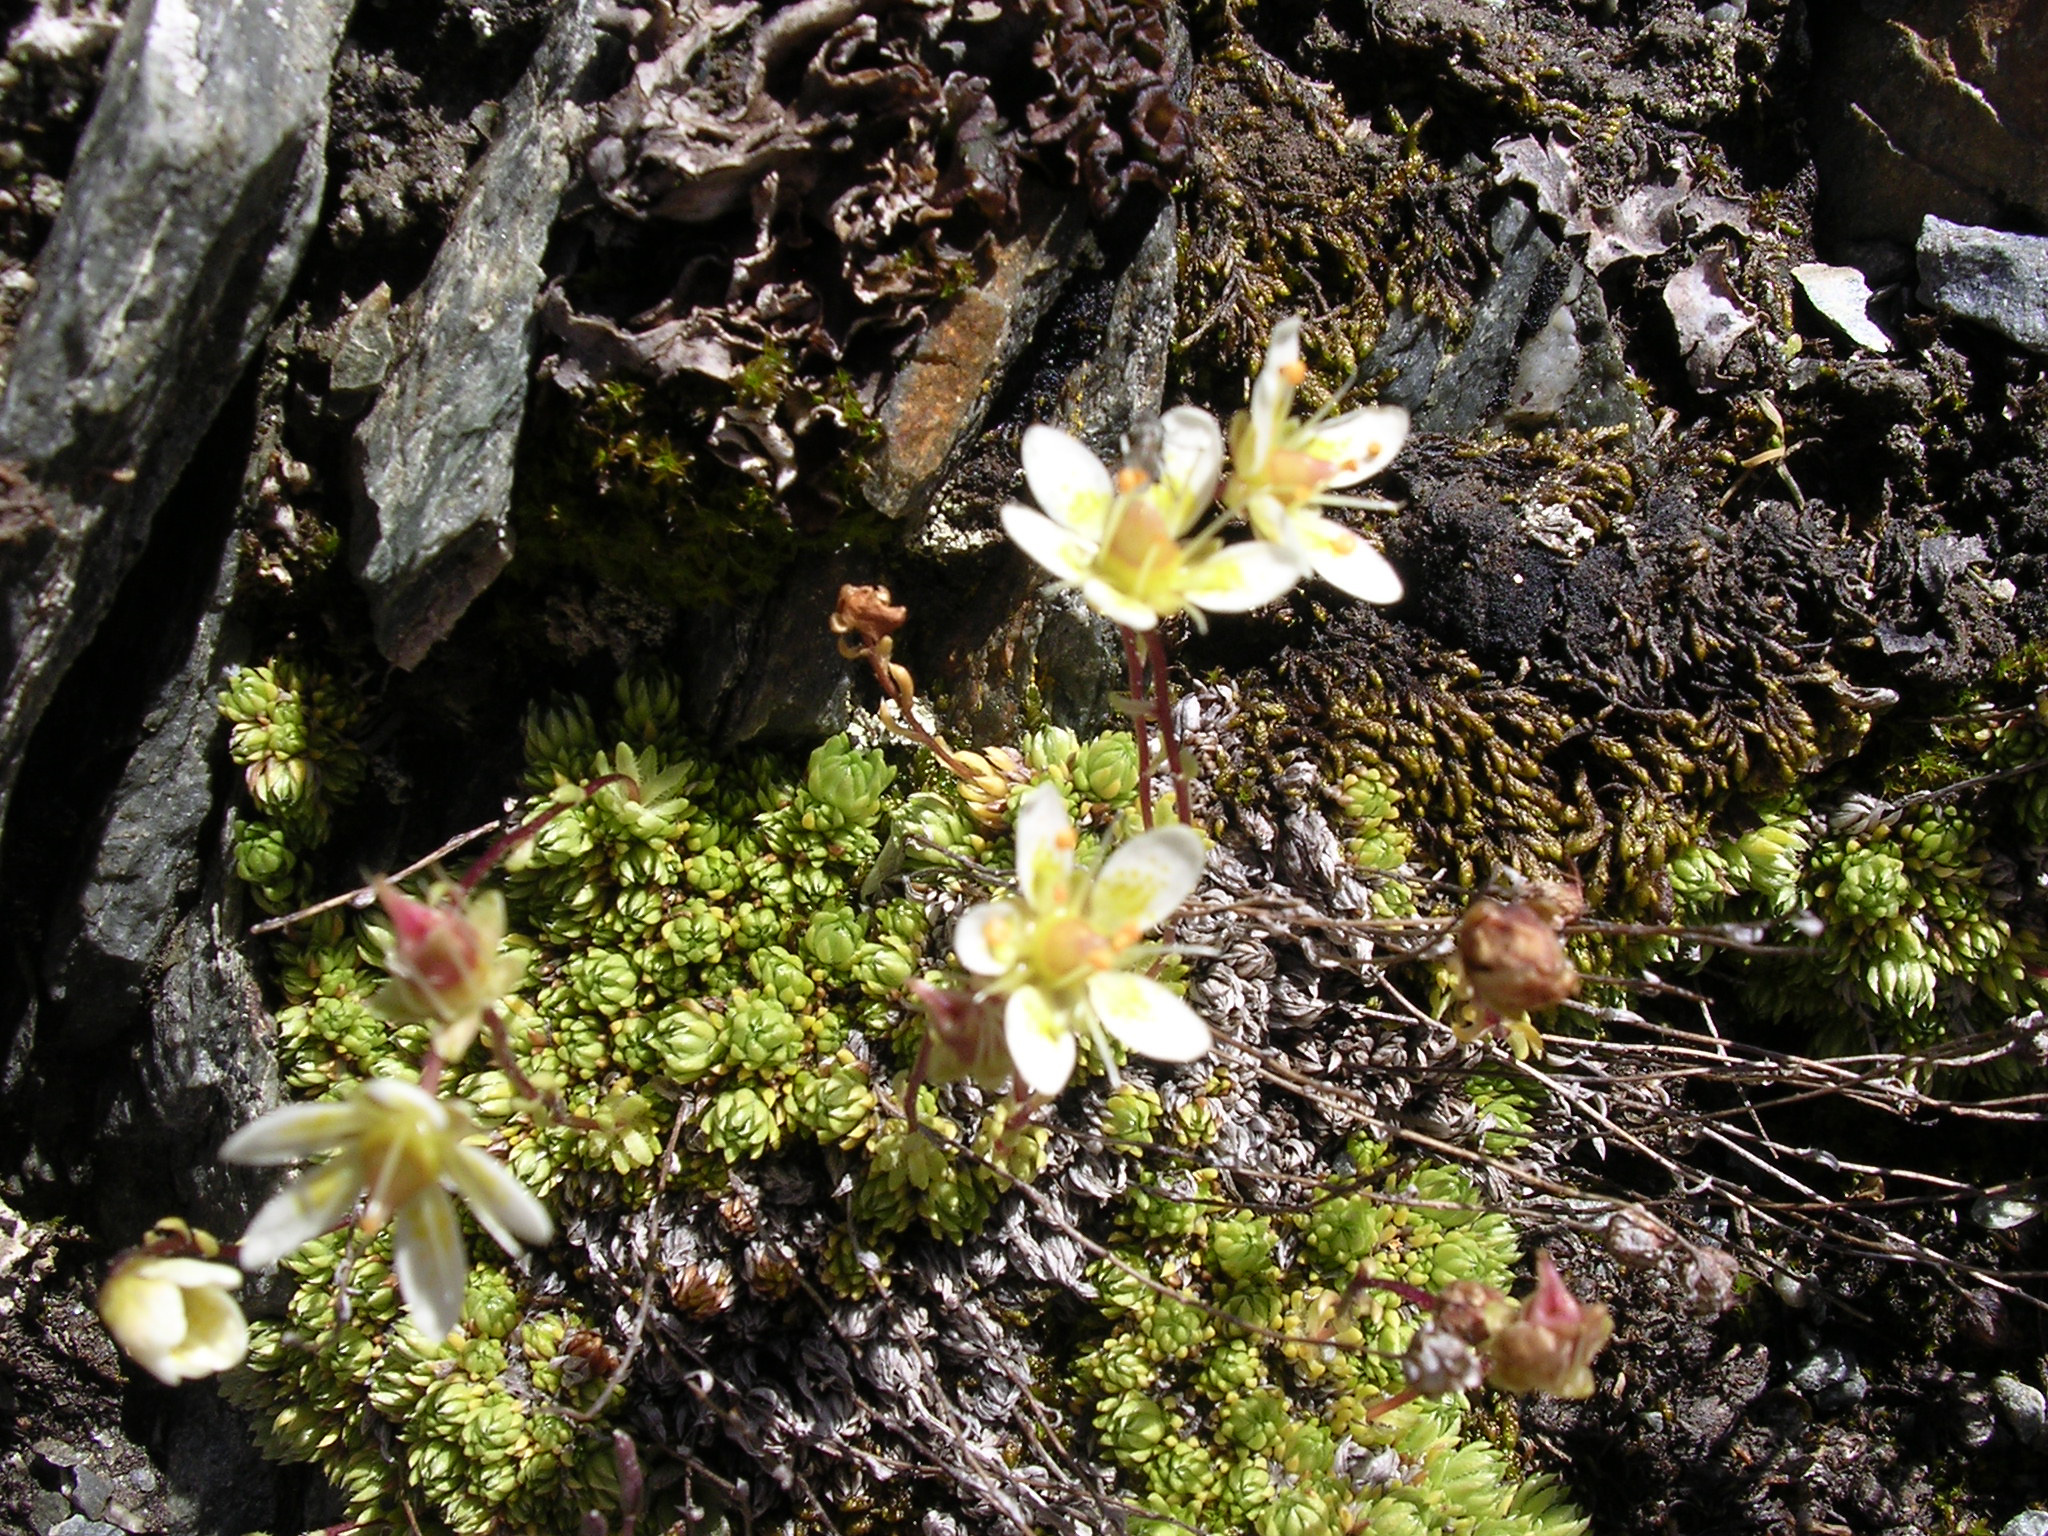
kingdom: Plantae
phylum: Tracheophyta
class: Magnoliopsida
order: Saxifragales
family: Saxifragaceae
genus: Saxifraga
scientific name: Saxifraga bryoides
